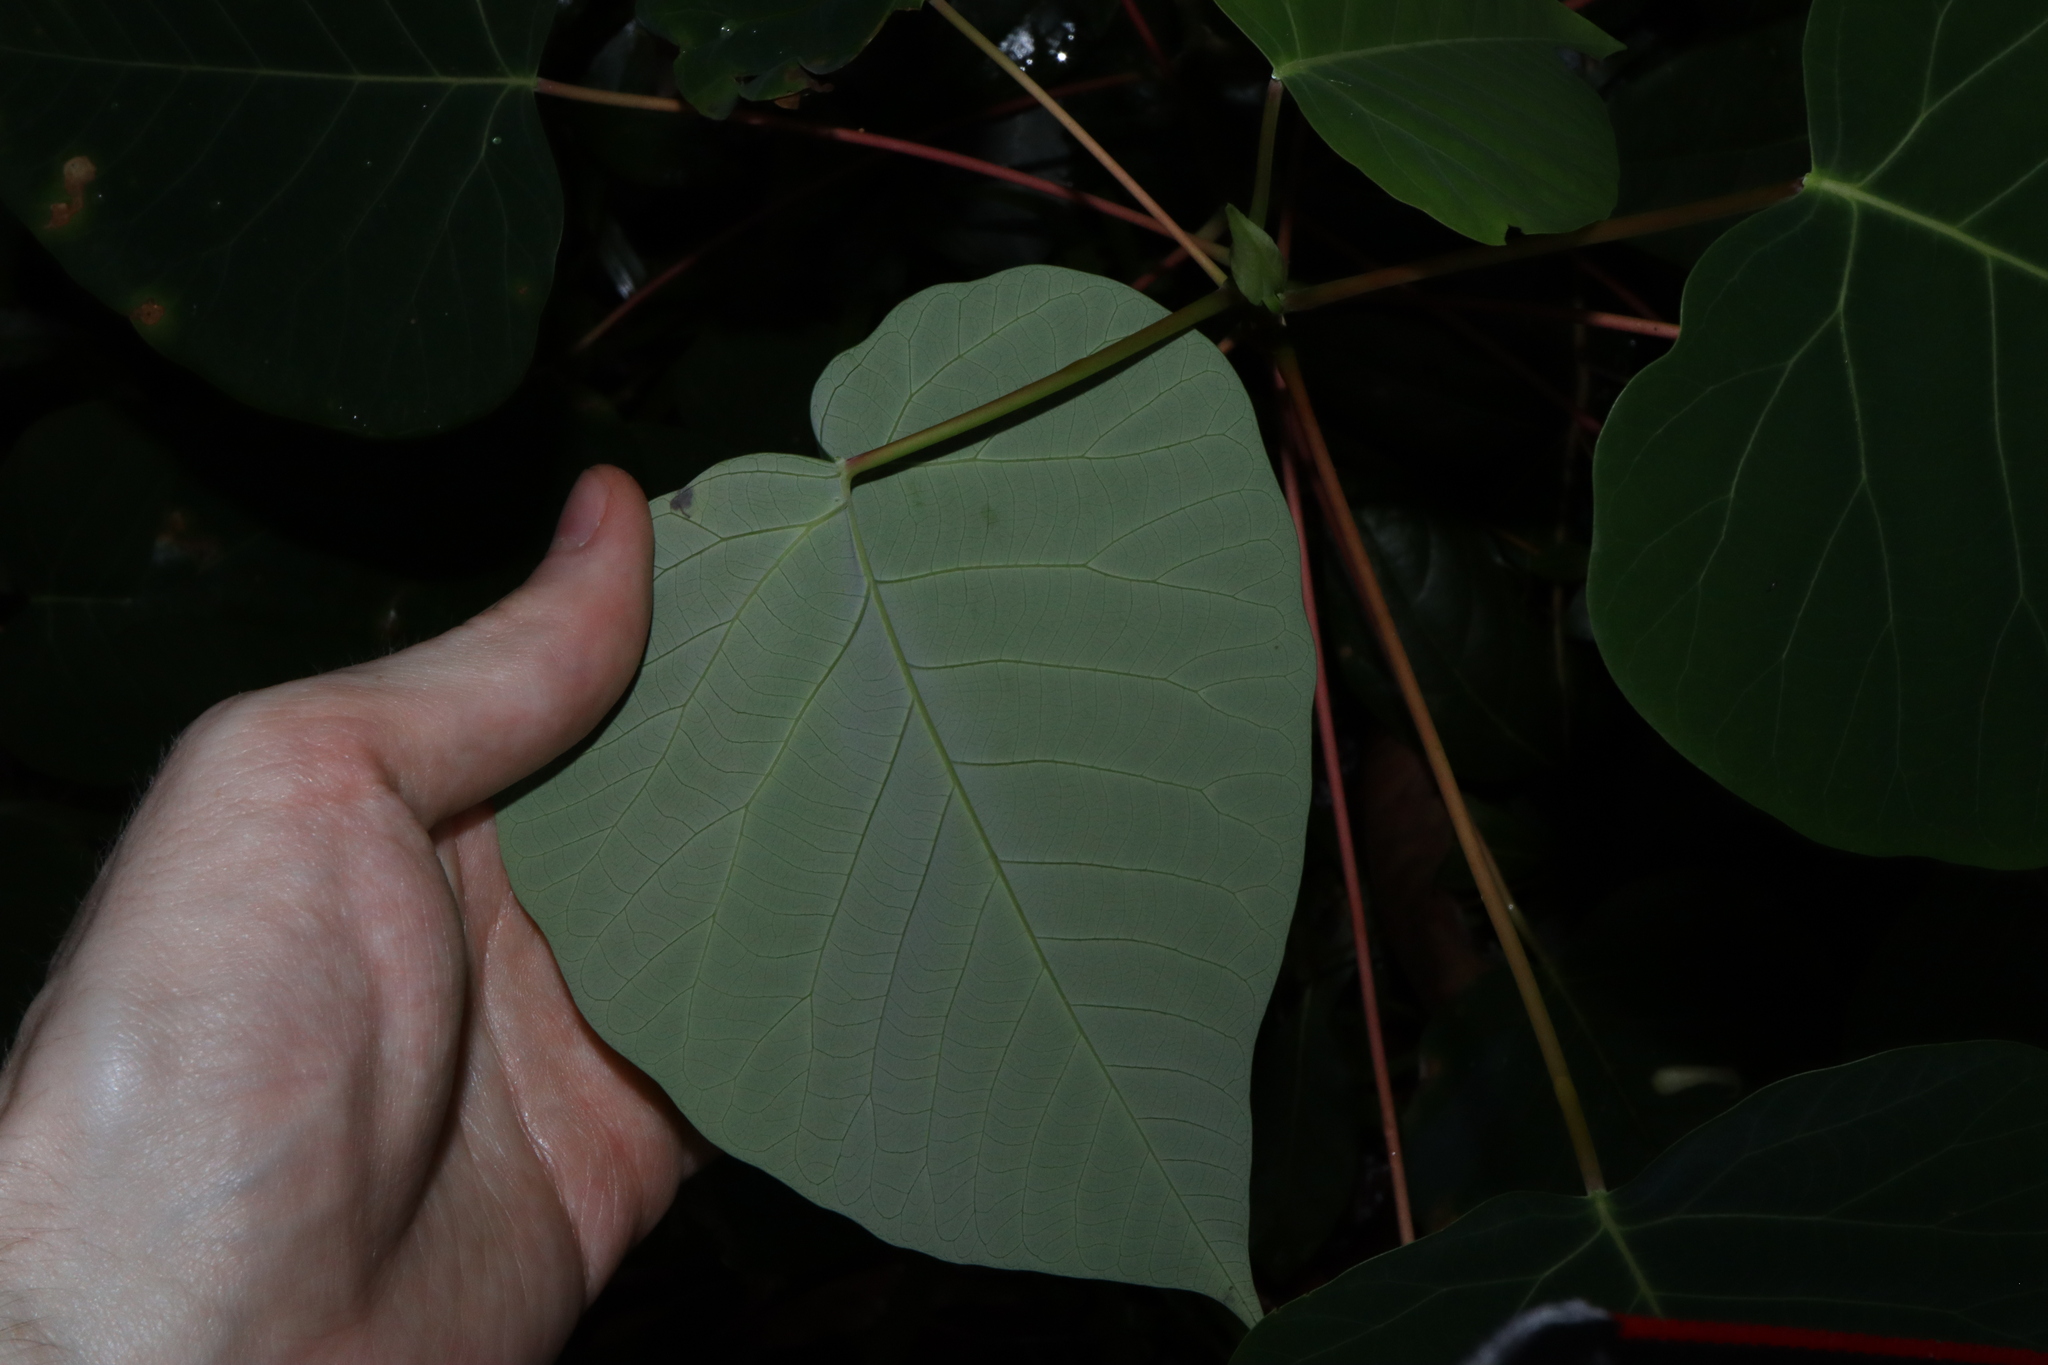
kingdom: Plantae
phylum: Tracheophyta
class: Magnoliopsida
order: Malpighiales
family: Euphorbiaceae
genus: Homalanthus
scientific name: Homalanthus populifolius
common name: Queensland poplar
